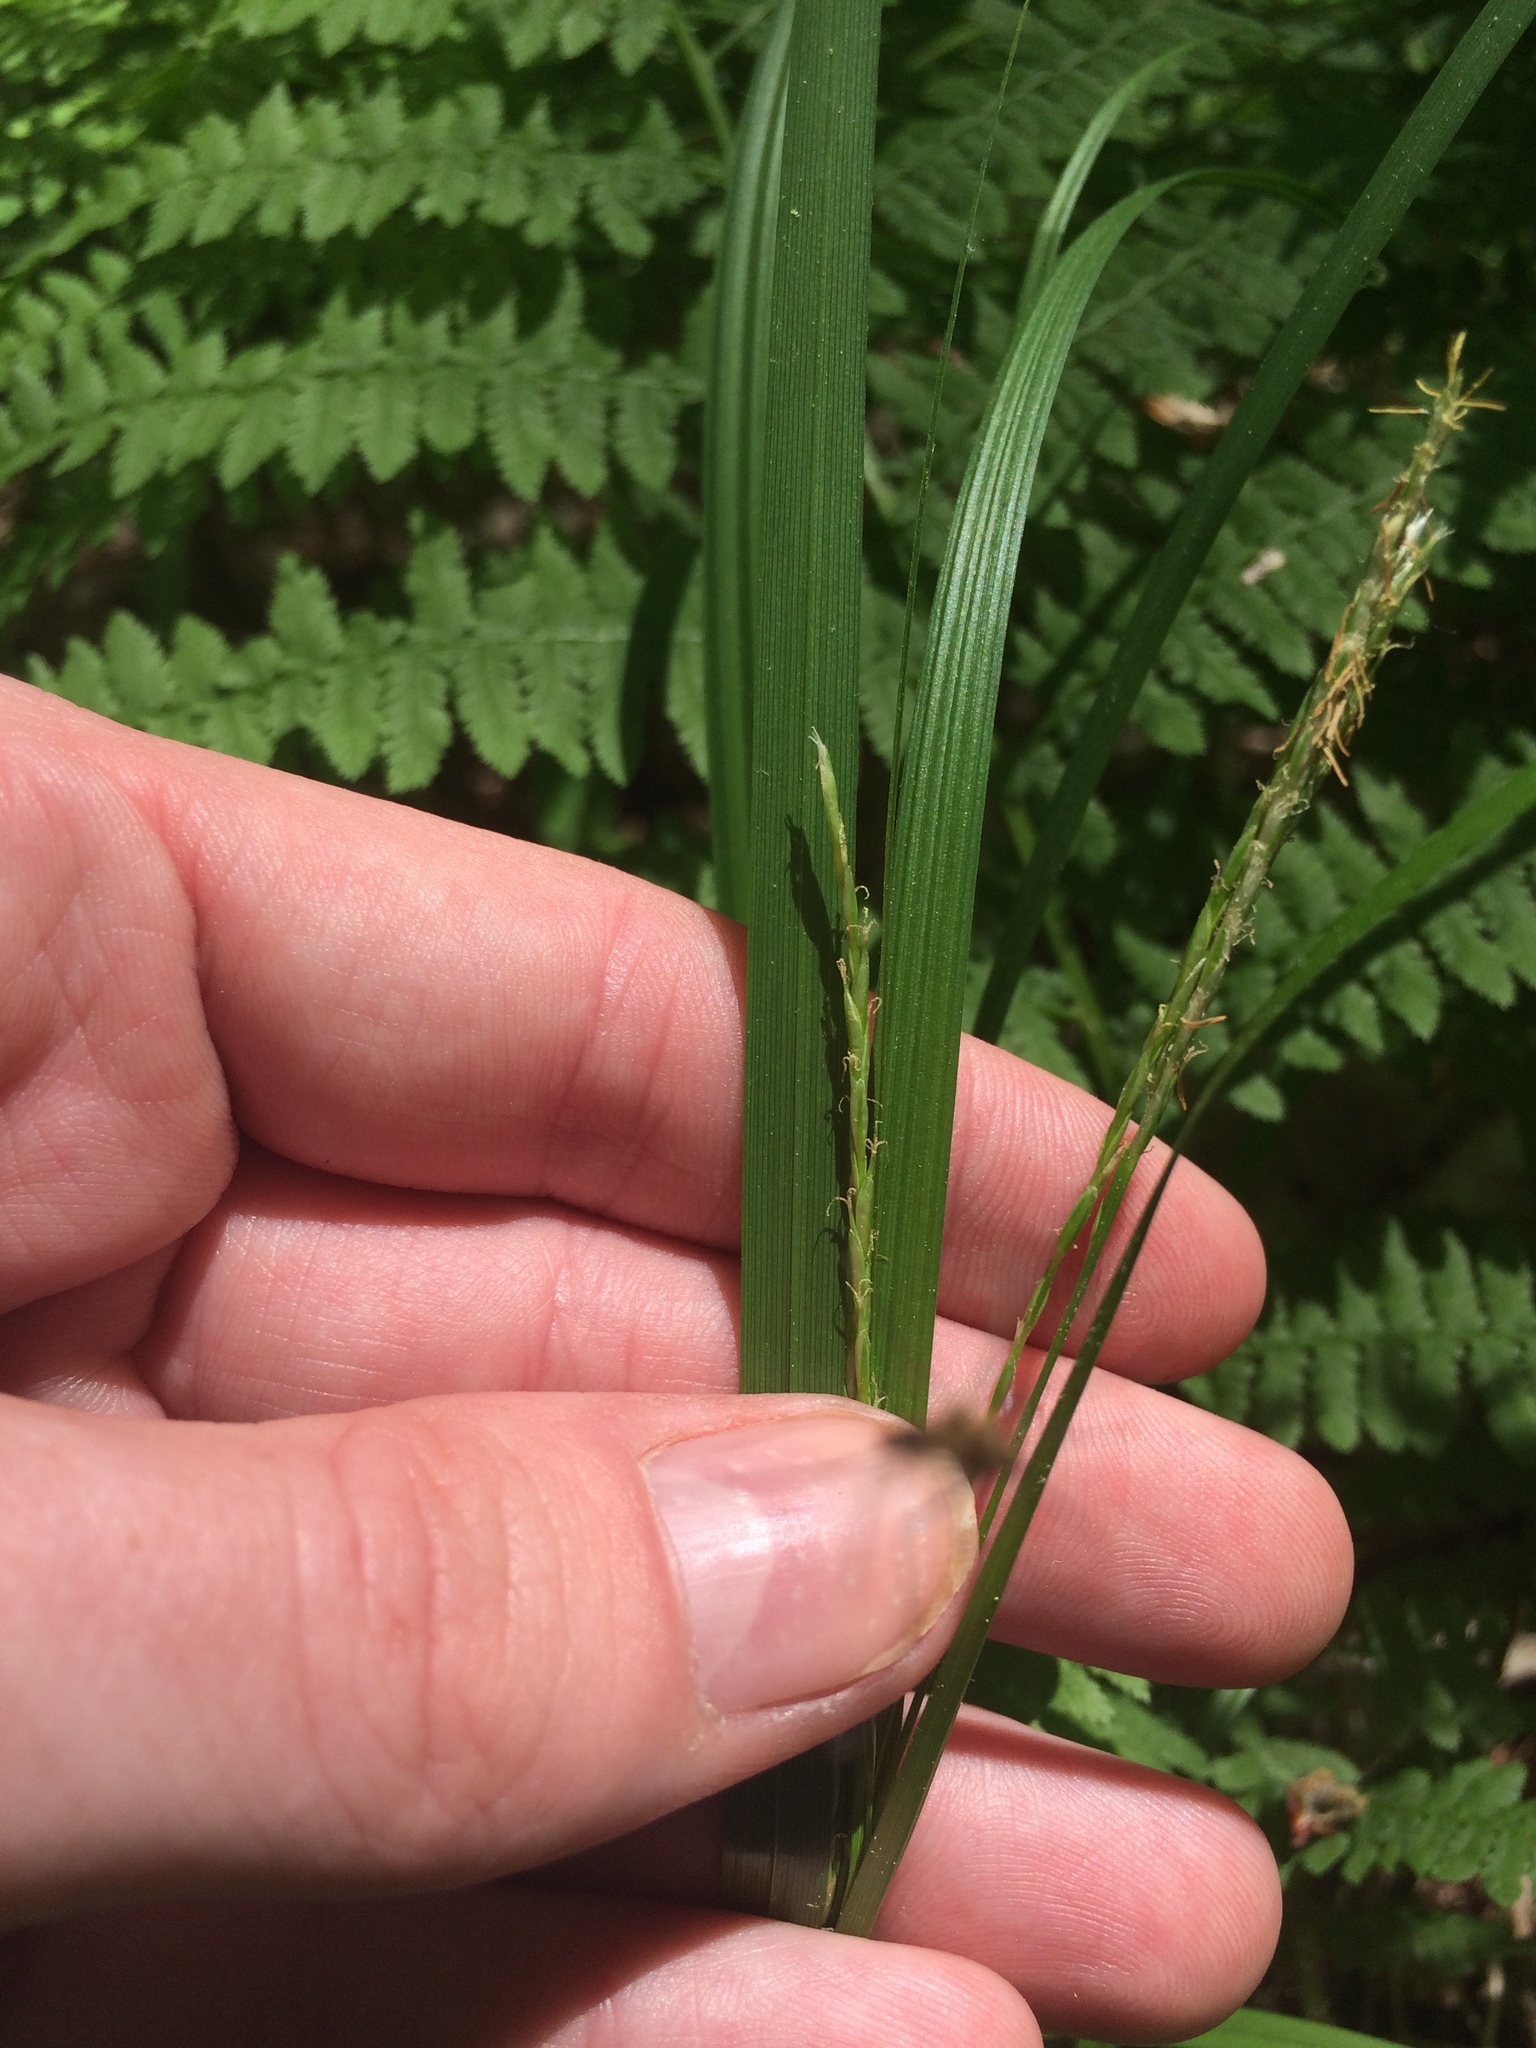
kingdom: Plantae
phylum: Tracheophyta
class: Liliopsida
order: Poales
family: Cyperaceae
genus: Carex
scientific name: Carex debilis
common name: White-edge sedge
